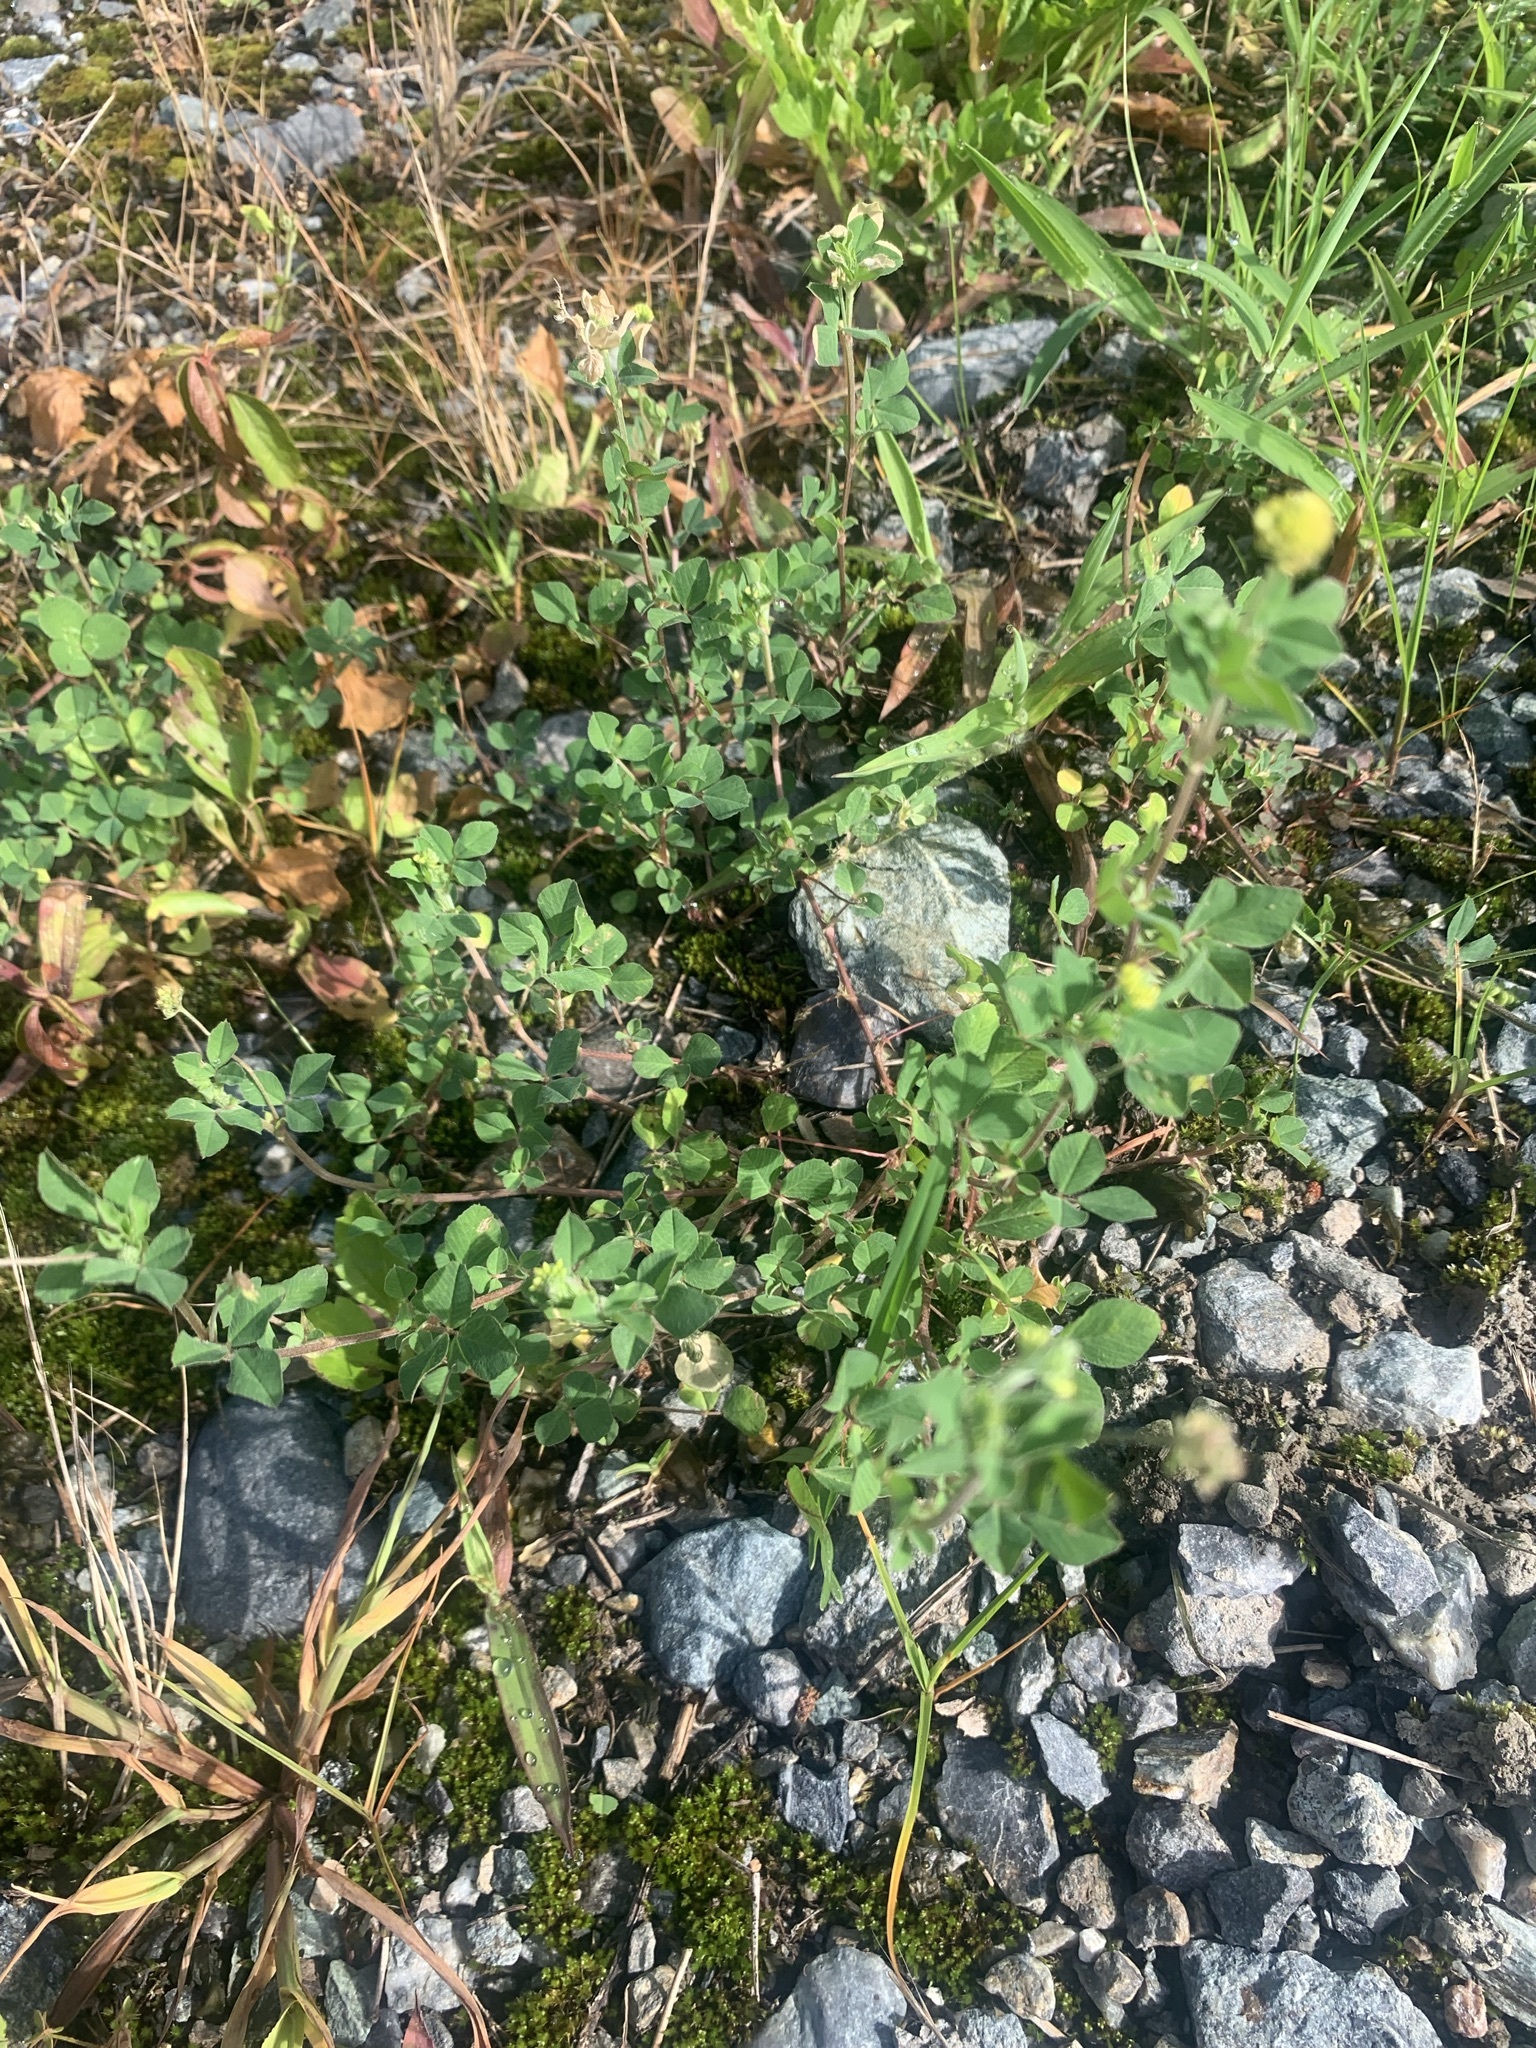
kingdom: Plantae
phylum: Tracheophyta
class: Magnoliopsida
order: Fabales
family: Fabaceae
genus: Medicago
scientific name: Medicago lupulina
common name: Black medick
